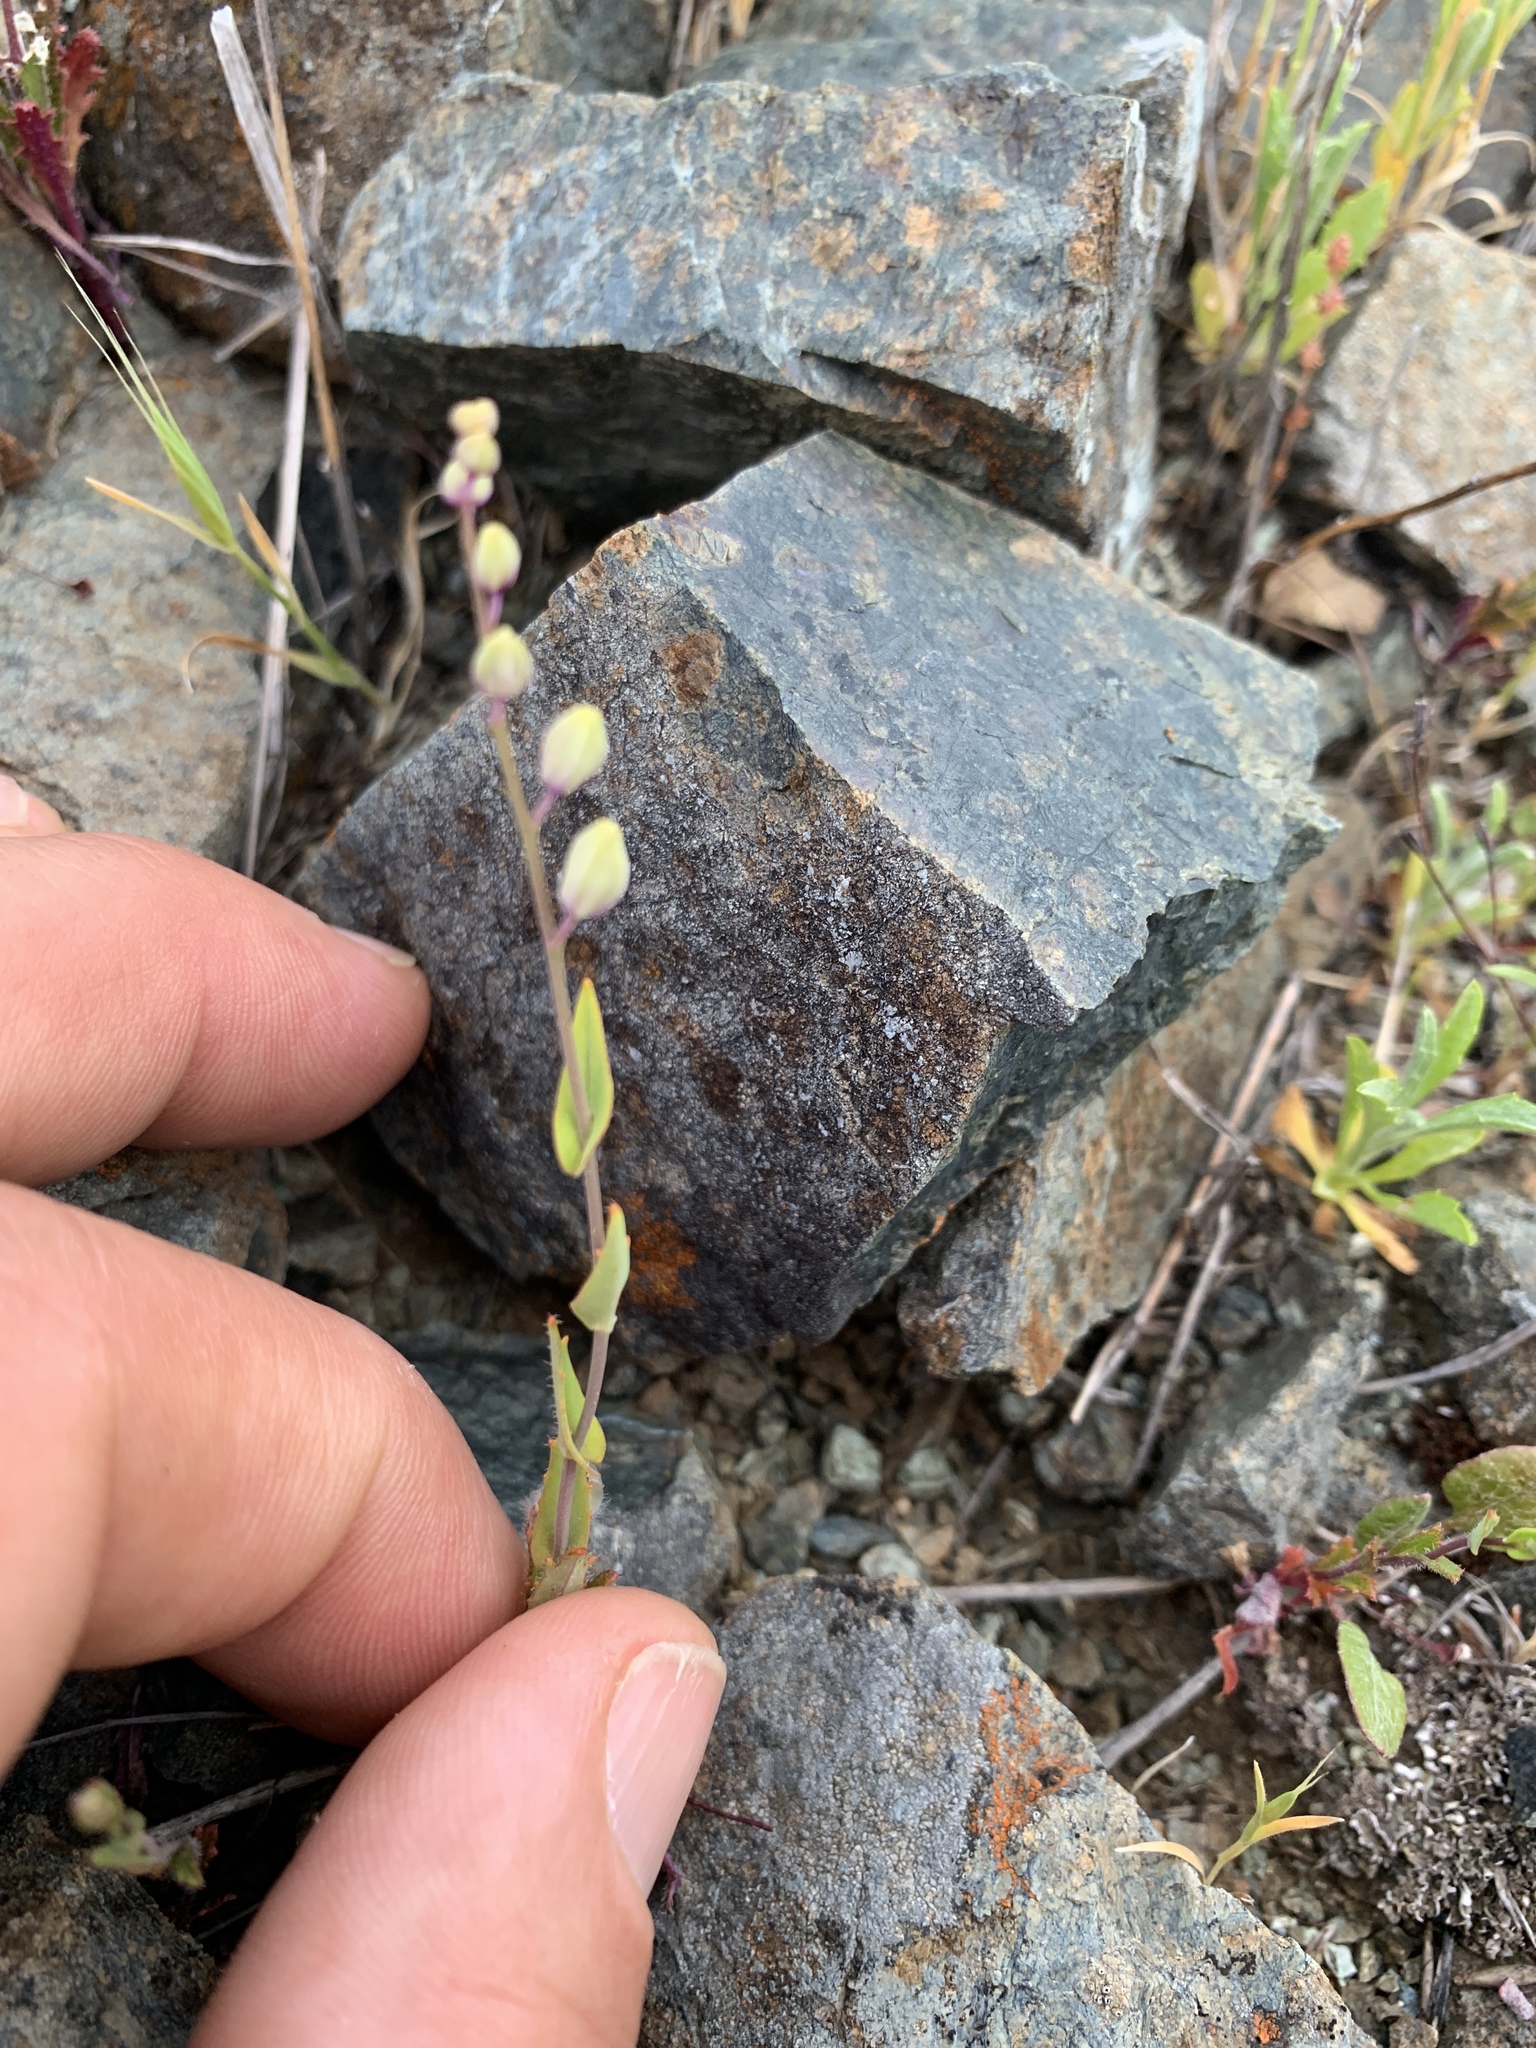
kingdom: Plantae
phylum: Tracheophyta
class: Magnoliopsida
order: Brassicales
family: Brassicaceae
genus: Streptanthus
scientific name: Streptanthus glandulosus
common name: Jewel-flower
